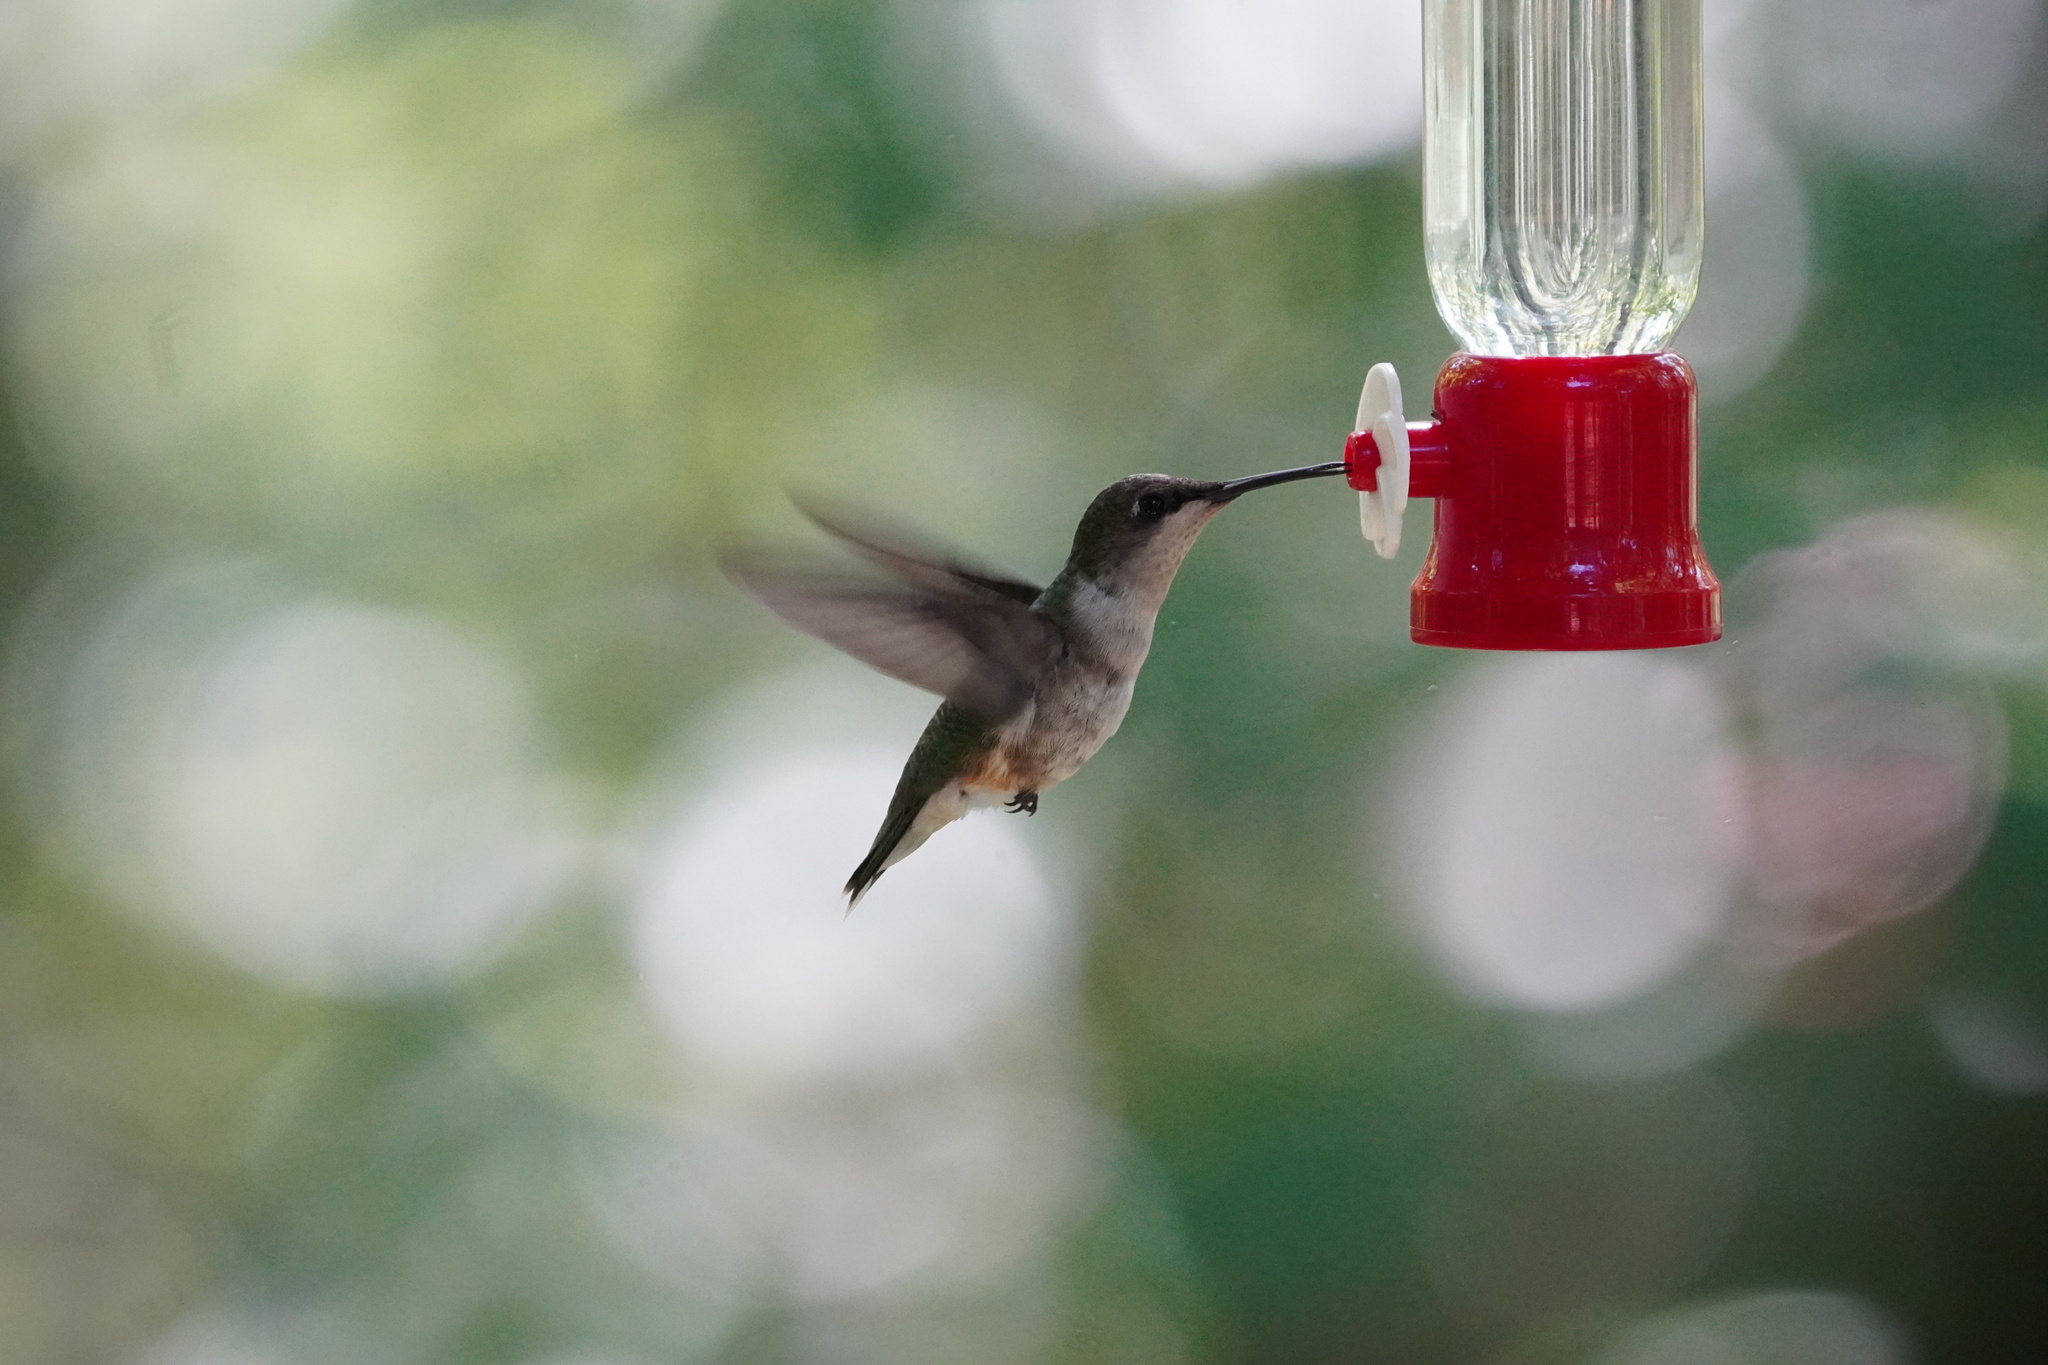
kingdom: Animalia
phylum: Chordata
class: Aves
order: Apodiformes
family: Trochilidae
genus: Archilochus
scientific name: Archilochus colubris
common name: Ruby-throated hummingbird
